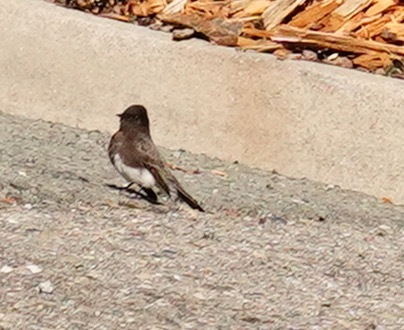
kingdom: Animalia
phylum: Chordata
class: Aves
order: Passeriformes
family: Tyrannidae
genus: Sayornis
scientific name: Sayornis nigricans
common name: Black phoebe
